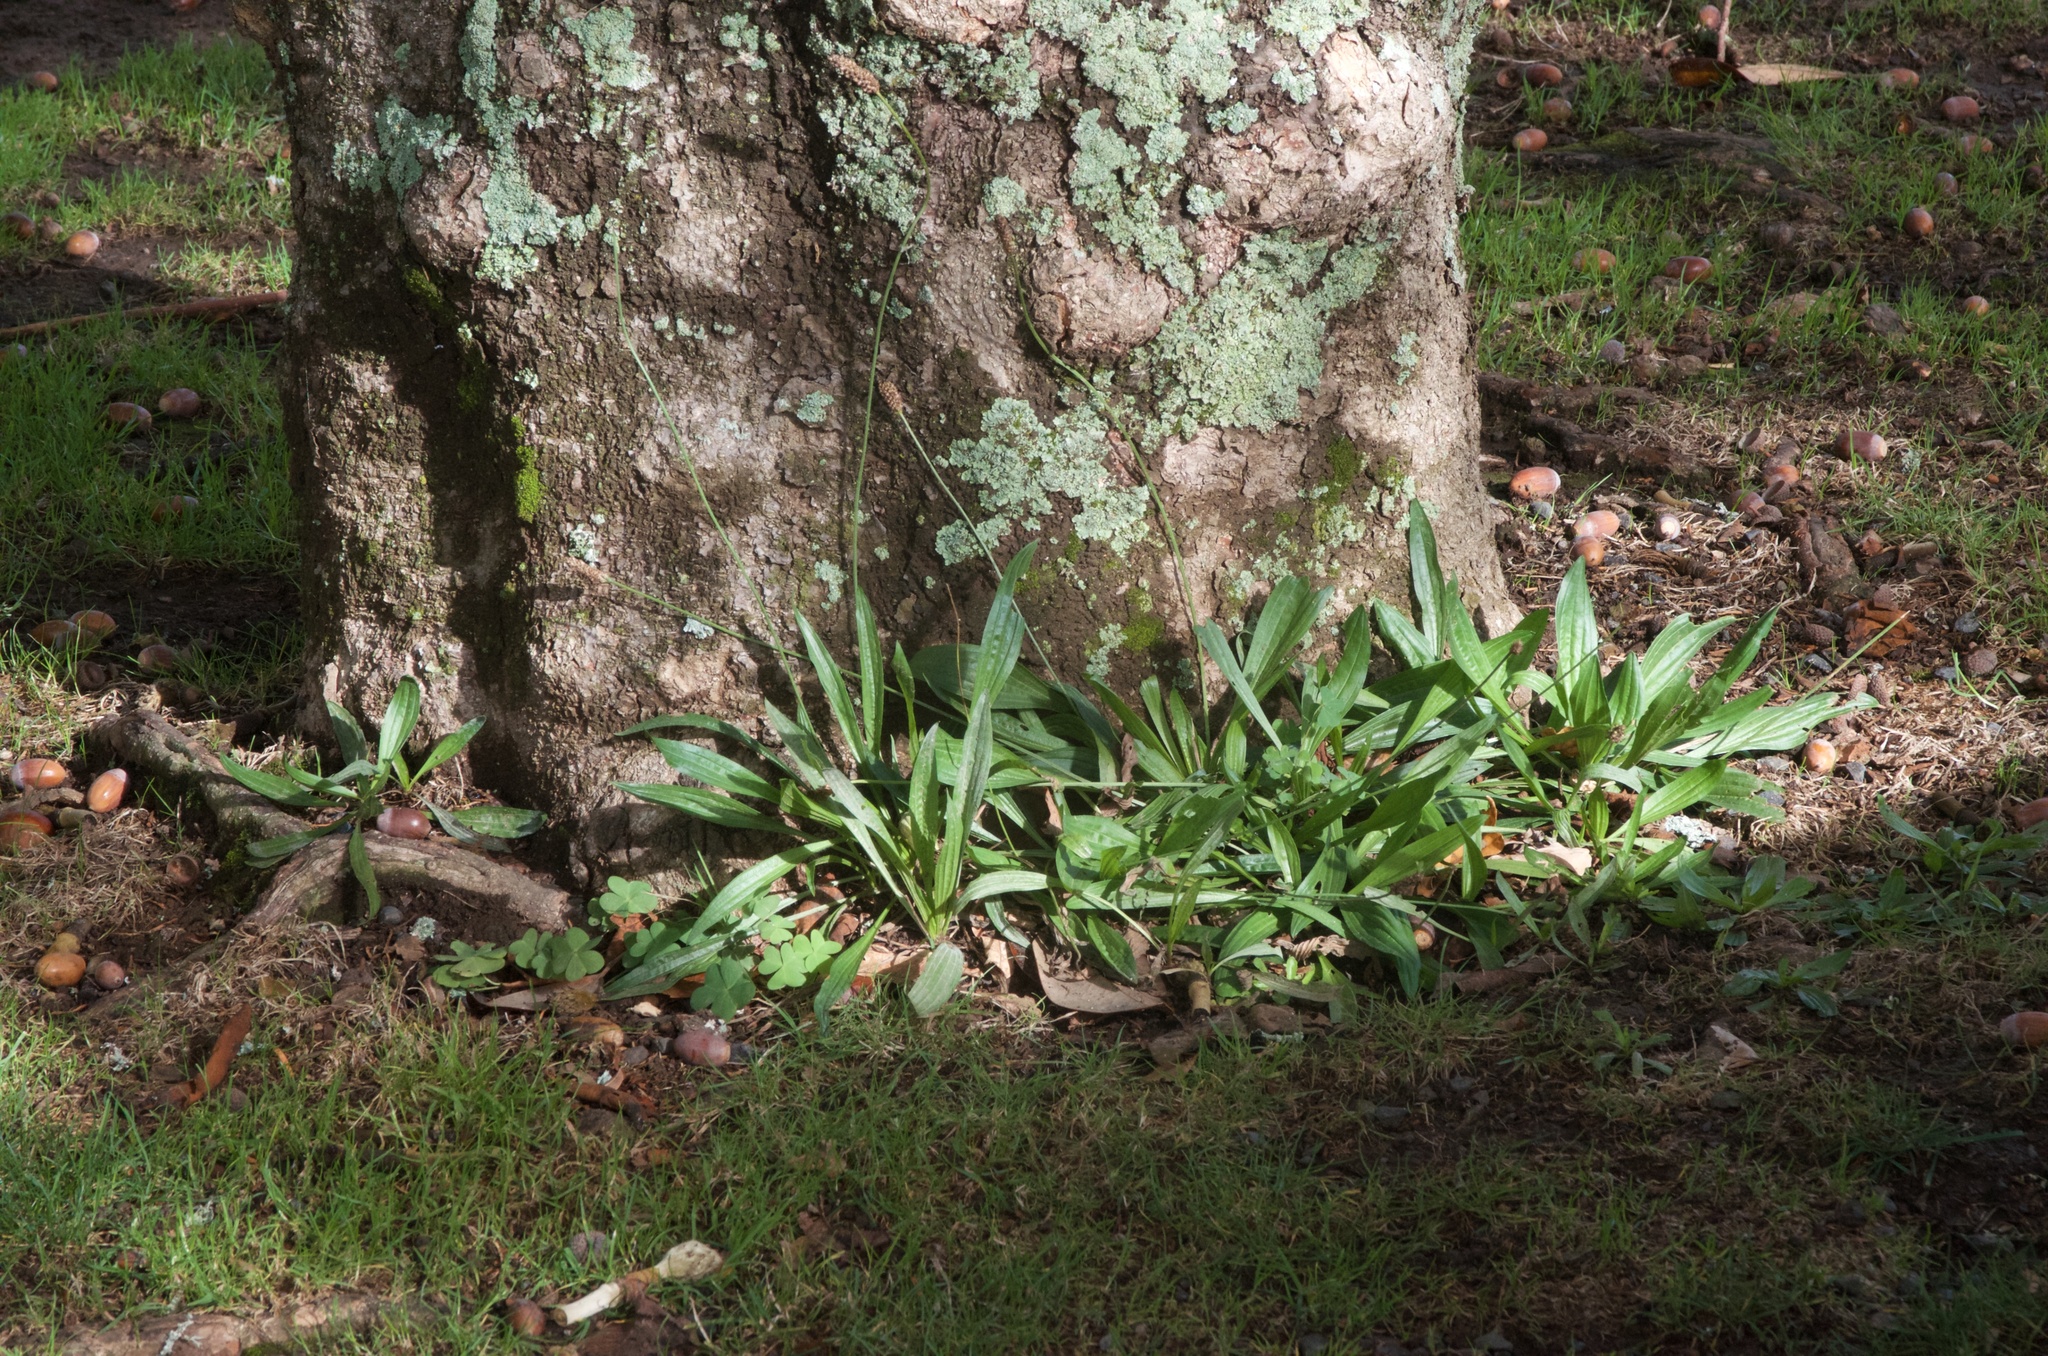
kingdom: Plantae
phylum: Tracheophyta
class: Magnoliopsida
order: Lamiales
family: Plantaginaceae
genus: Plantago
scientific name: Plantago lanceolata
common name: Ribwort plantain
